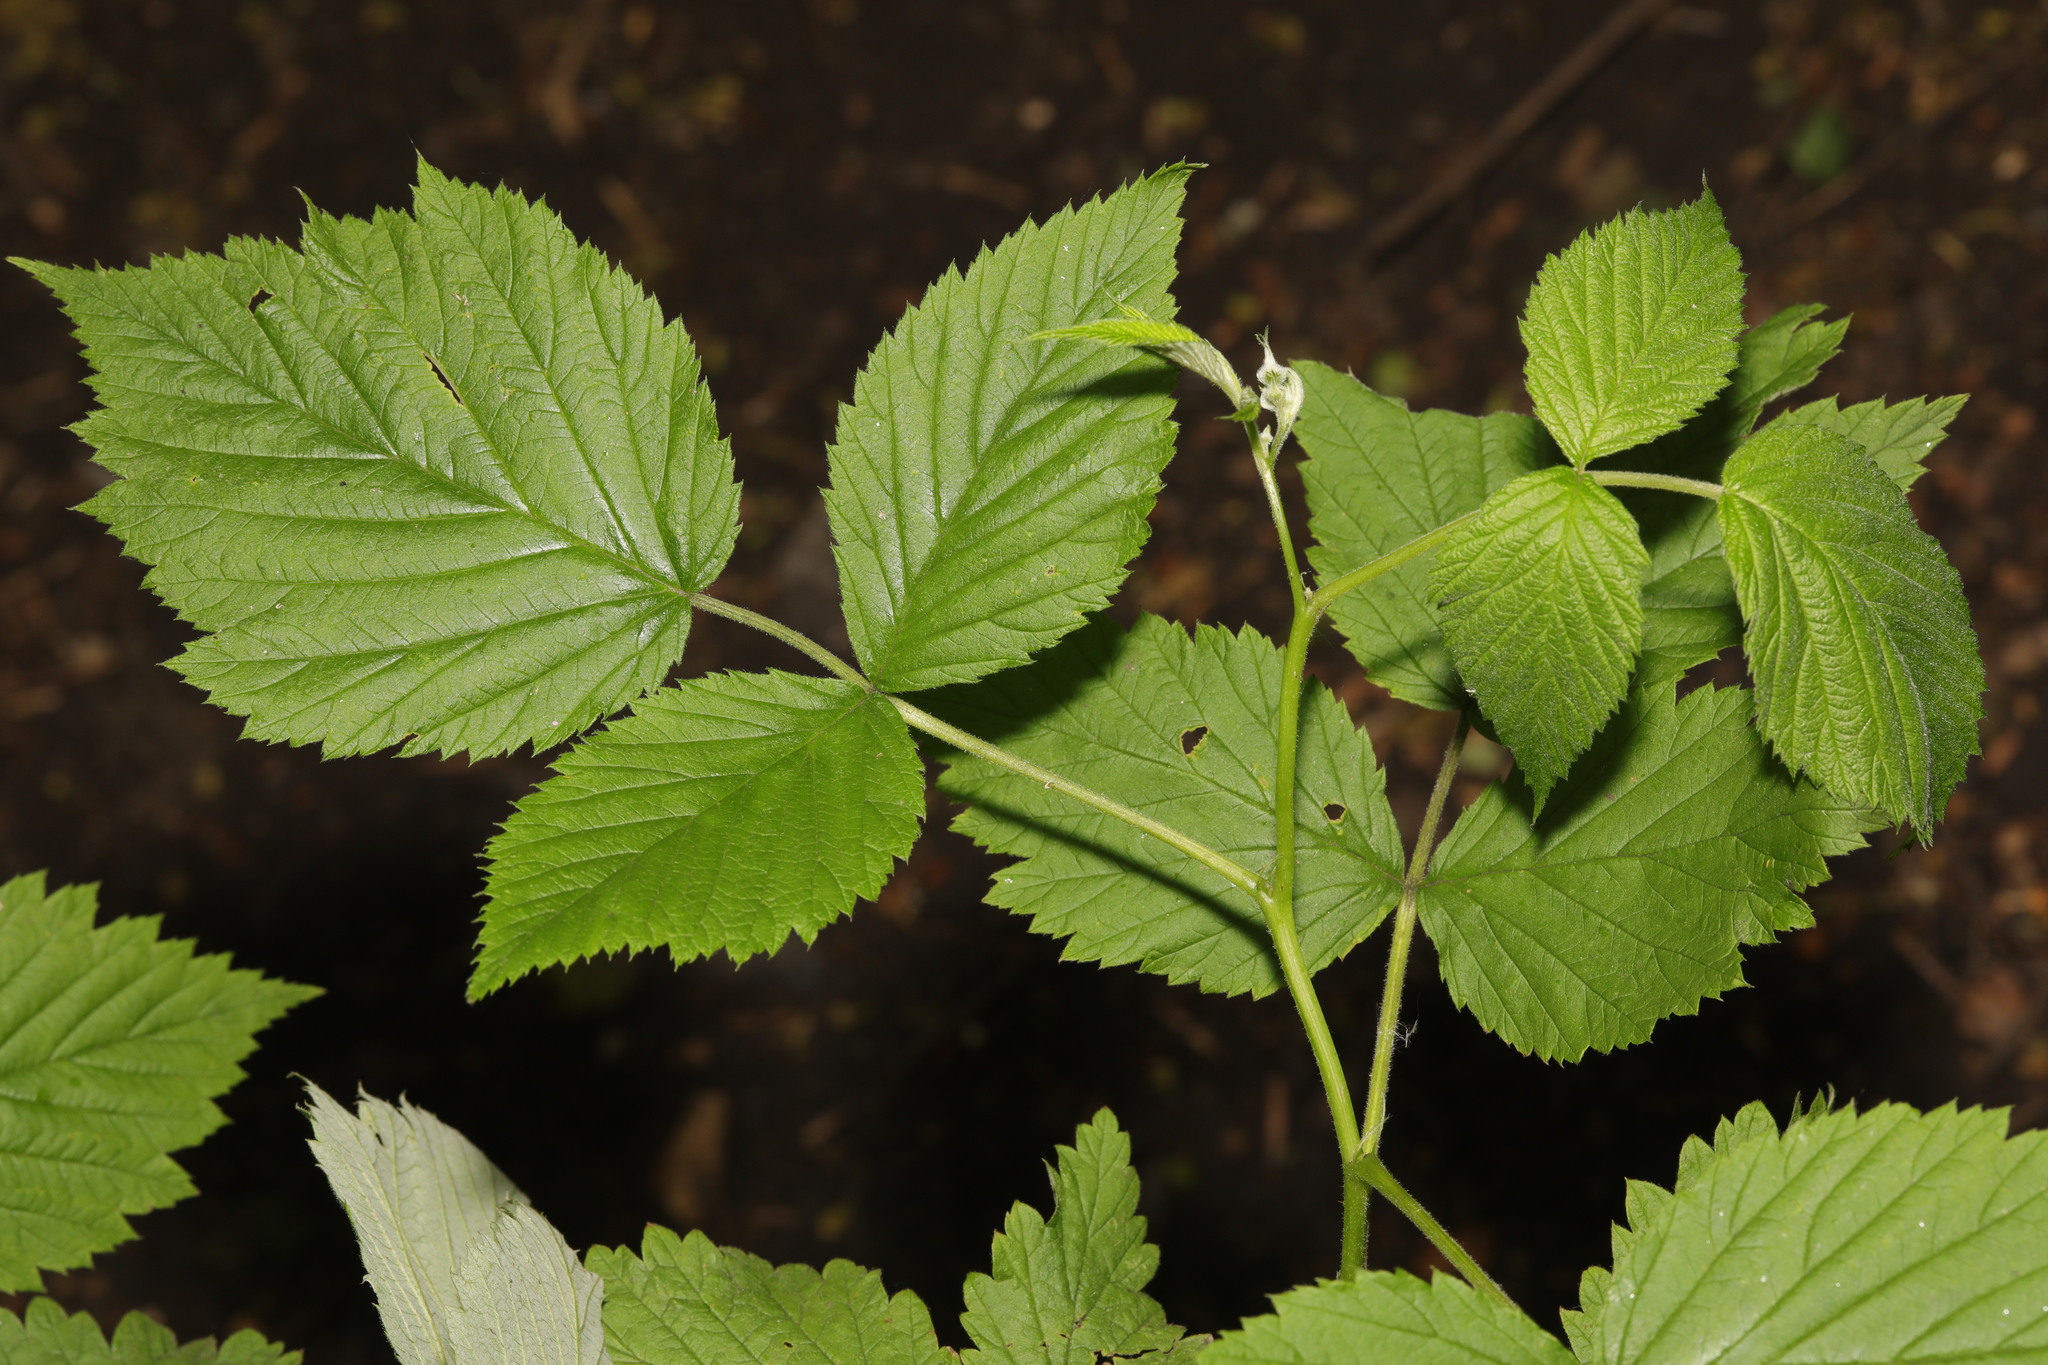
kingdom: Plantae
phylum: Tracheophyta
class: Magnoliopsida
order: Rosales
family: Rosaceae
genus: Rubus
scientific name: Rubus idaeus
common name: Raspberry
